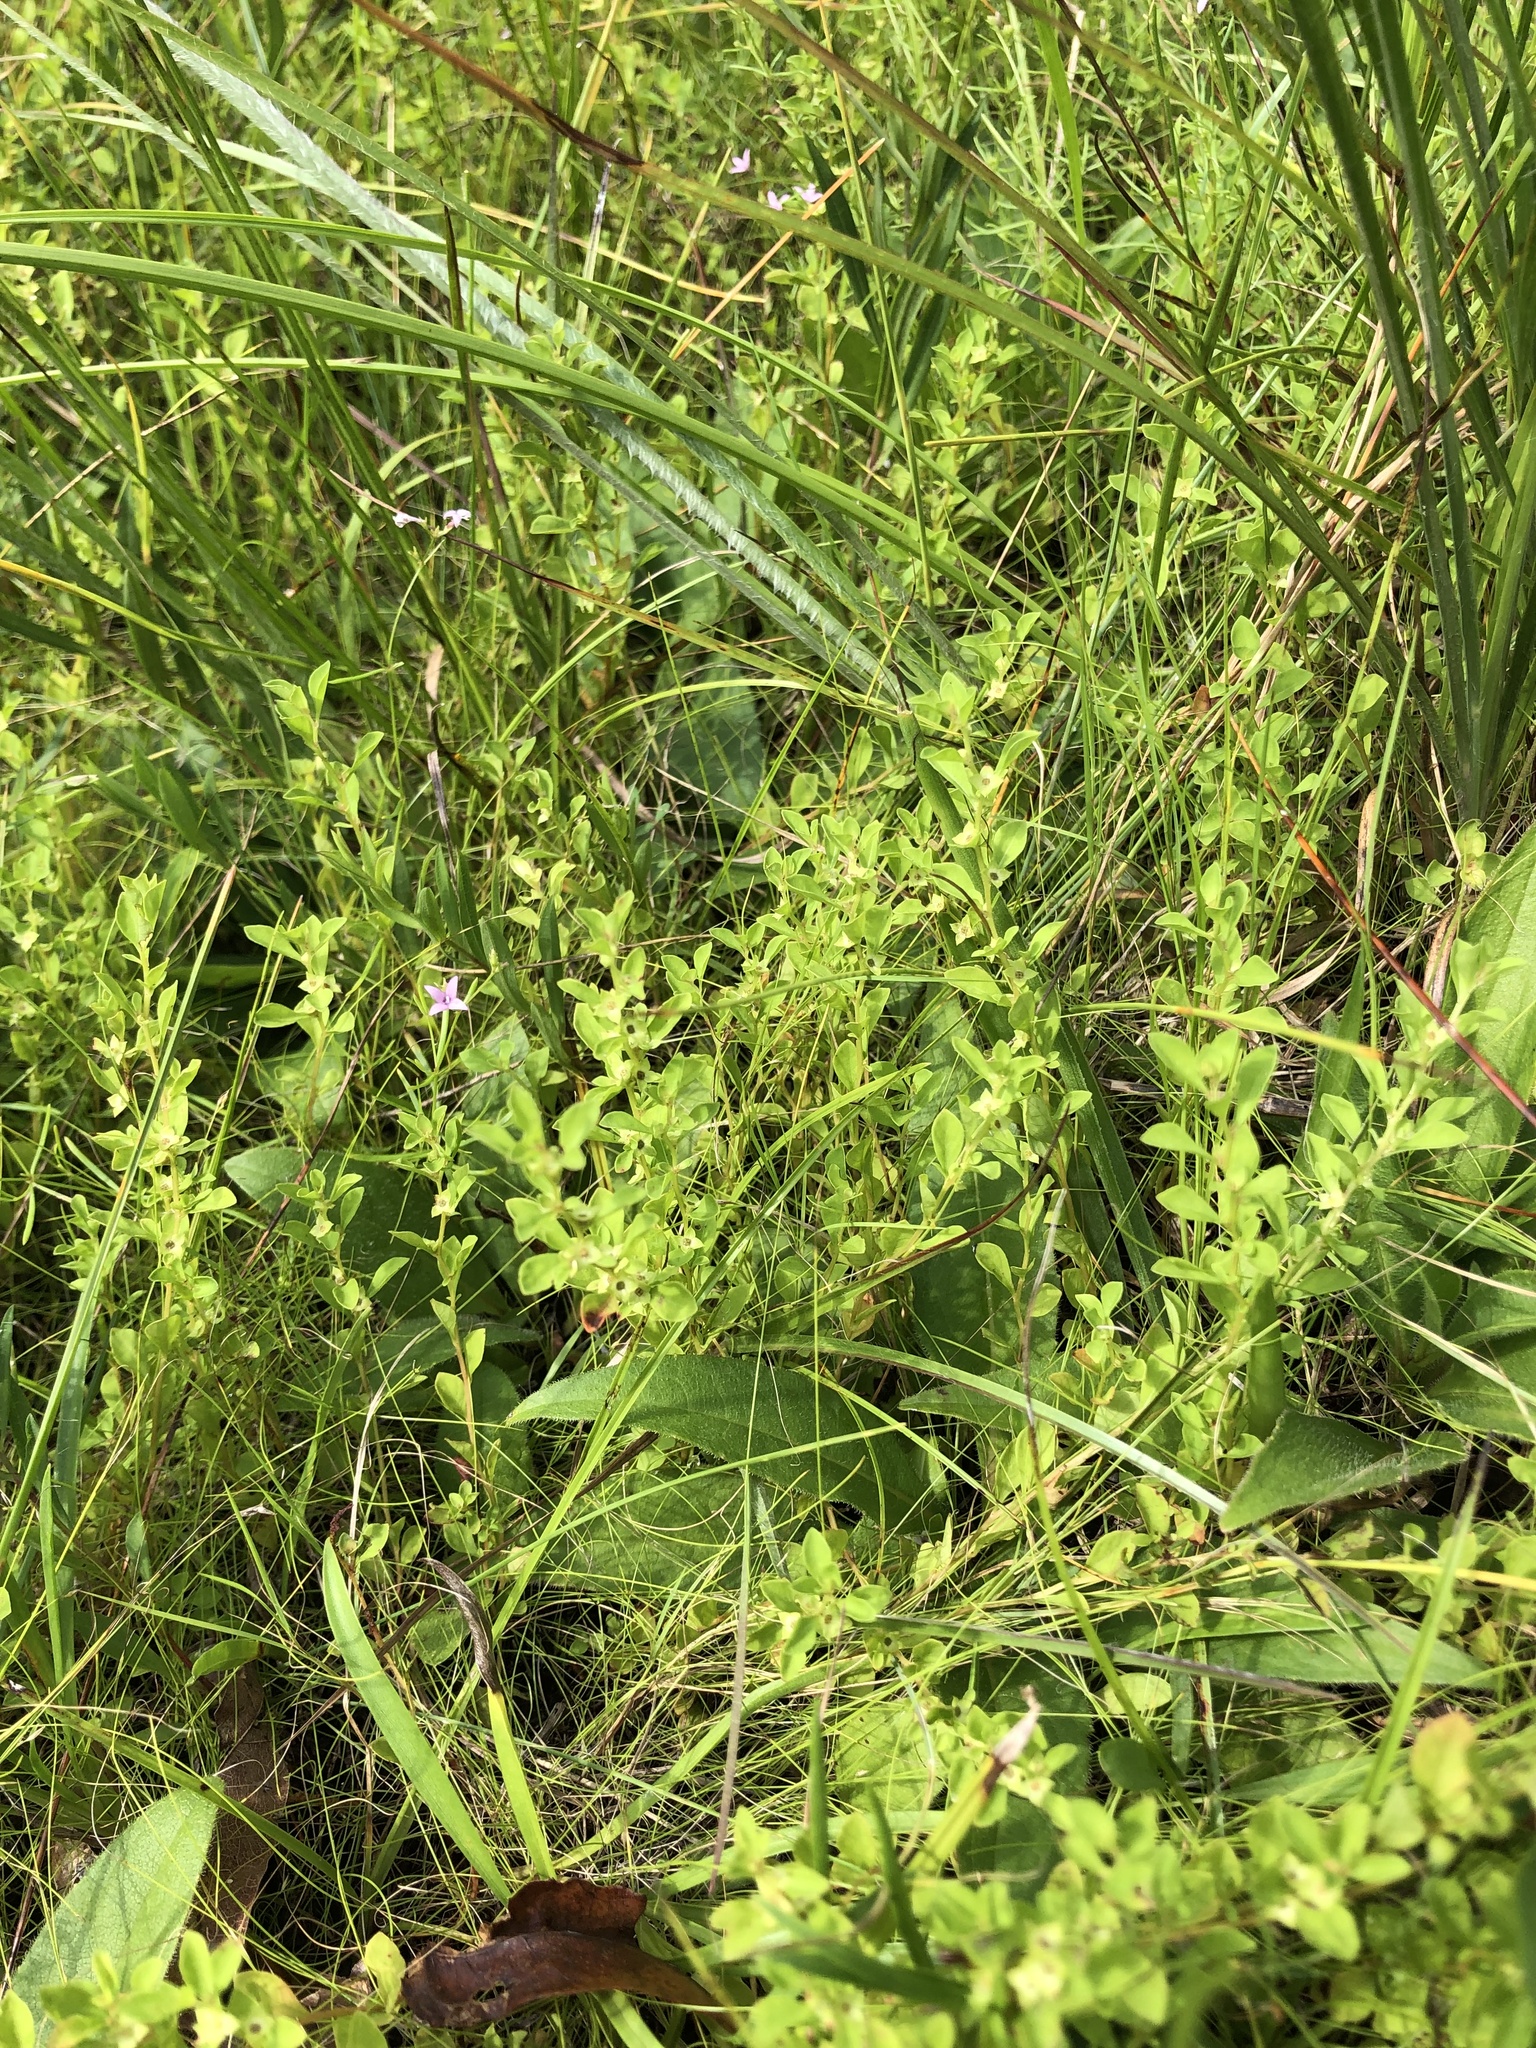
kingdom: Plantae
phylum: Tracheophyta
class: Magnoliopsida
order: Myrtales
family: Onagraceae
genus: Ludwigia
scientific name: Ludwigia microcarpa
